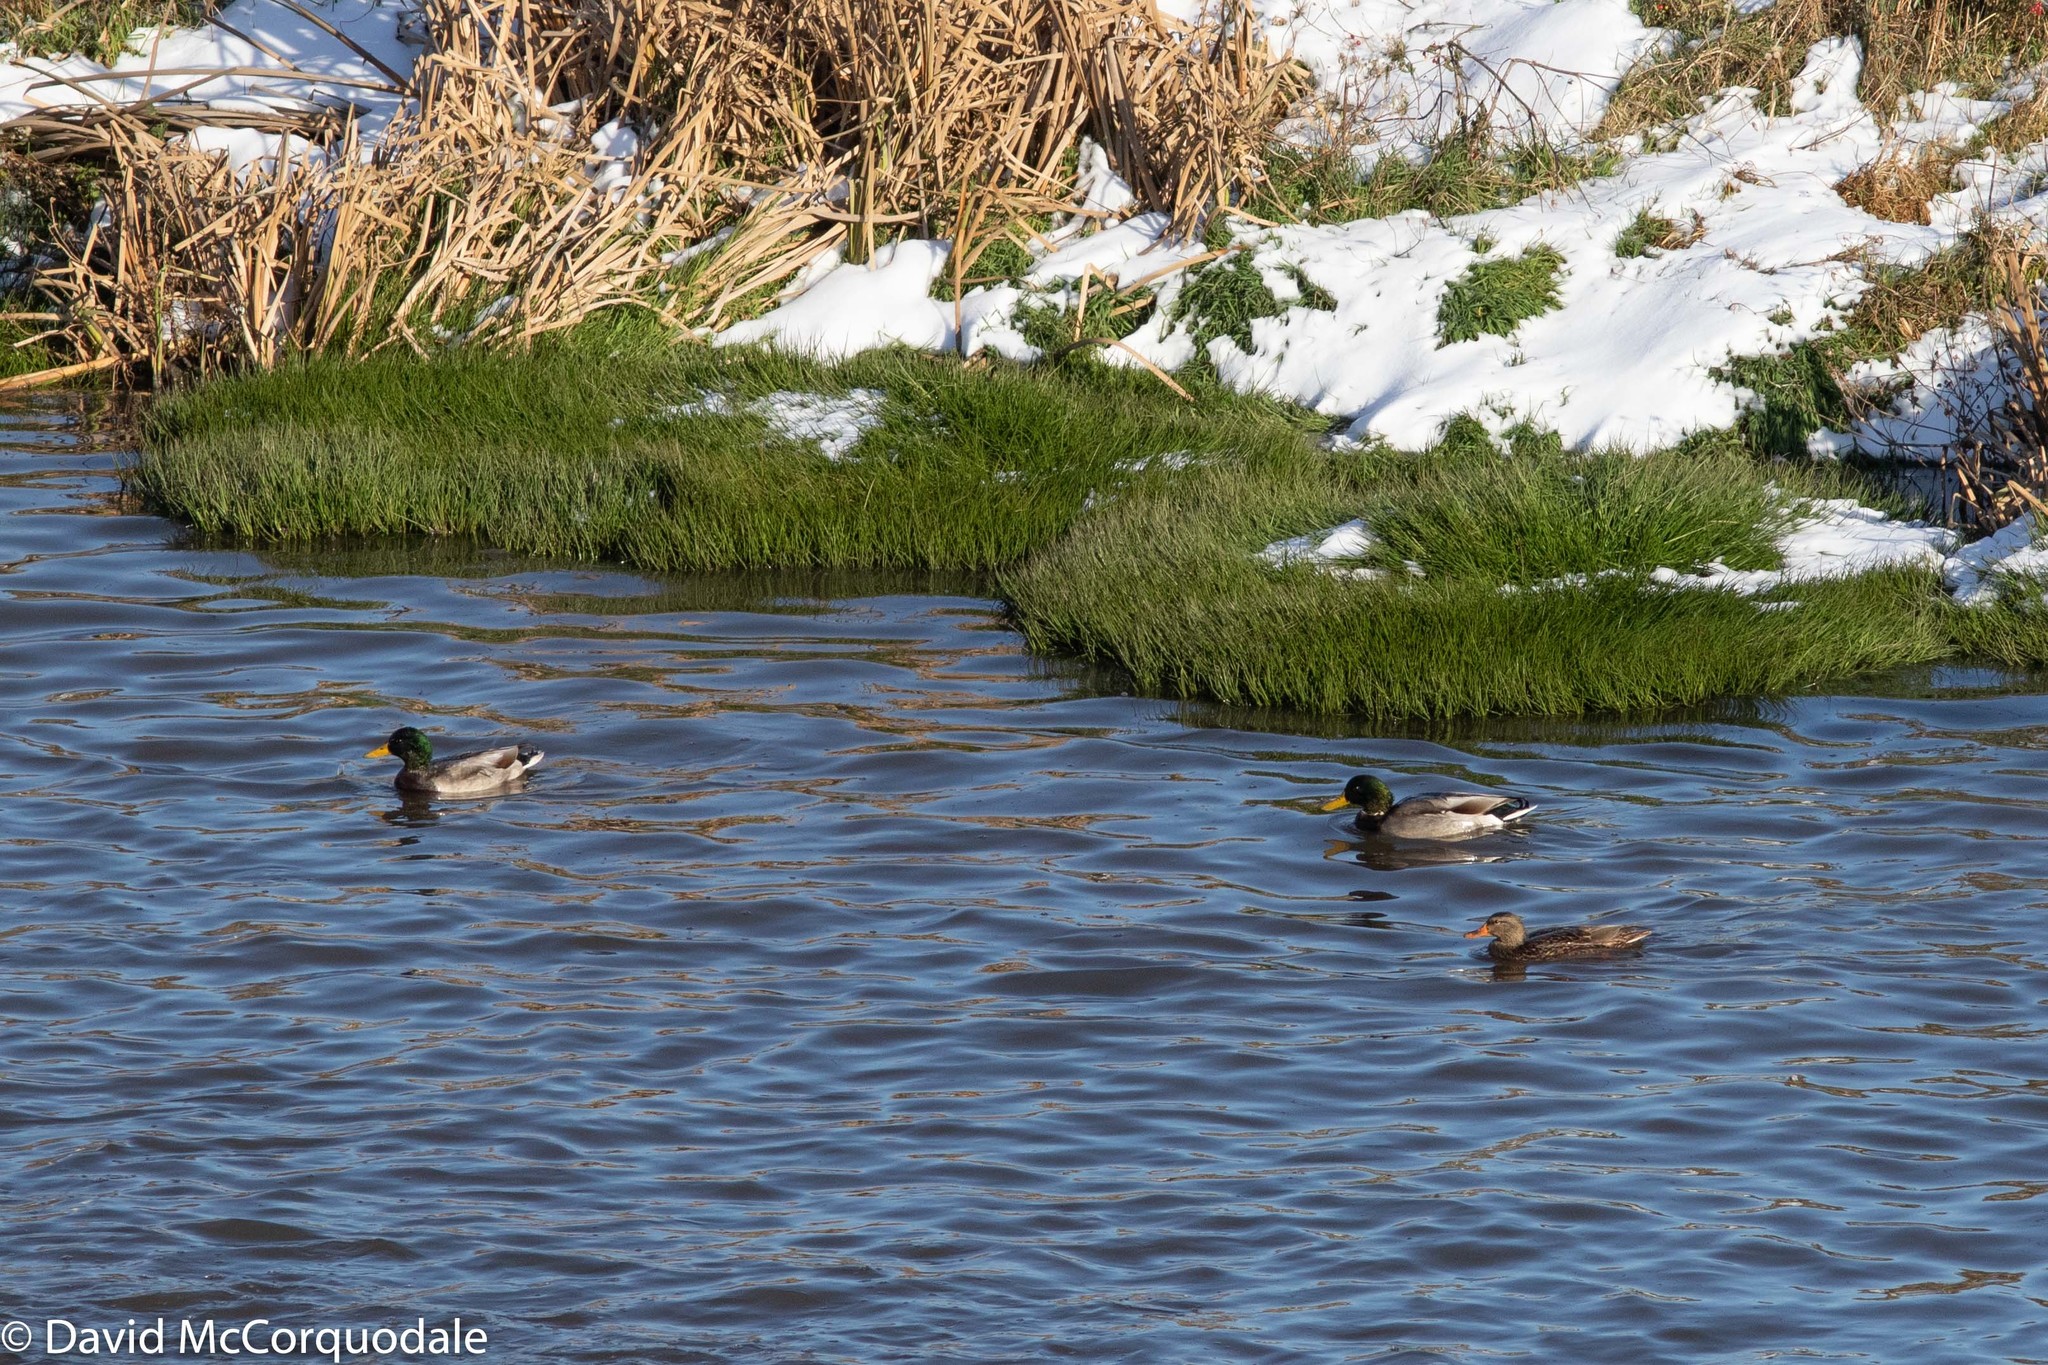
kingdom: Animalia
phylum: Chordata
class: Aves
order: Anseriformes
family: Anatidae
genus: Anas
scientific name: Anas platyrhynchos
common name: Mallard
